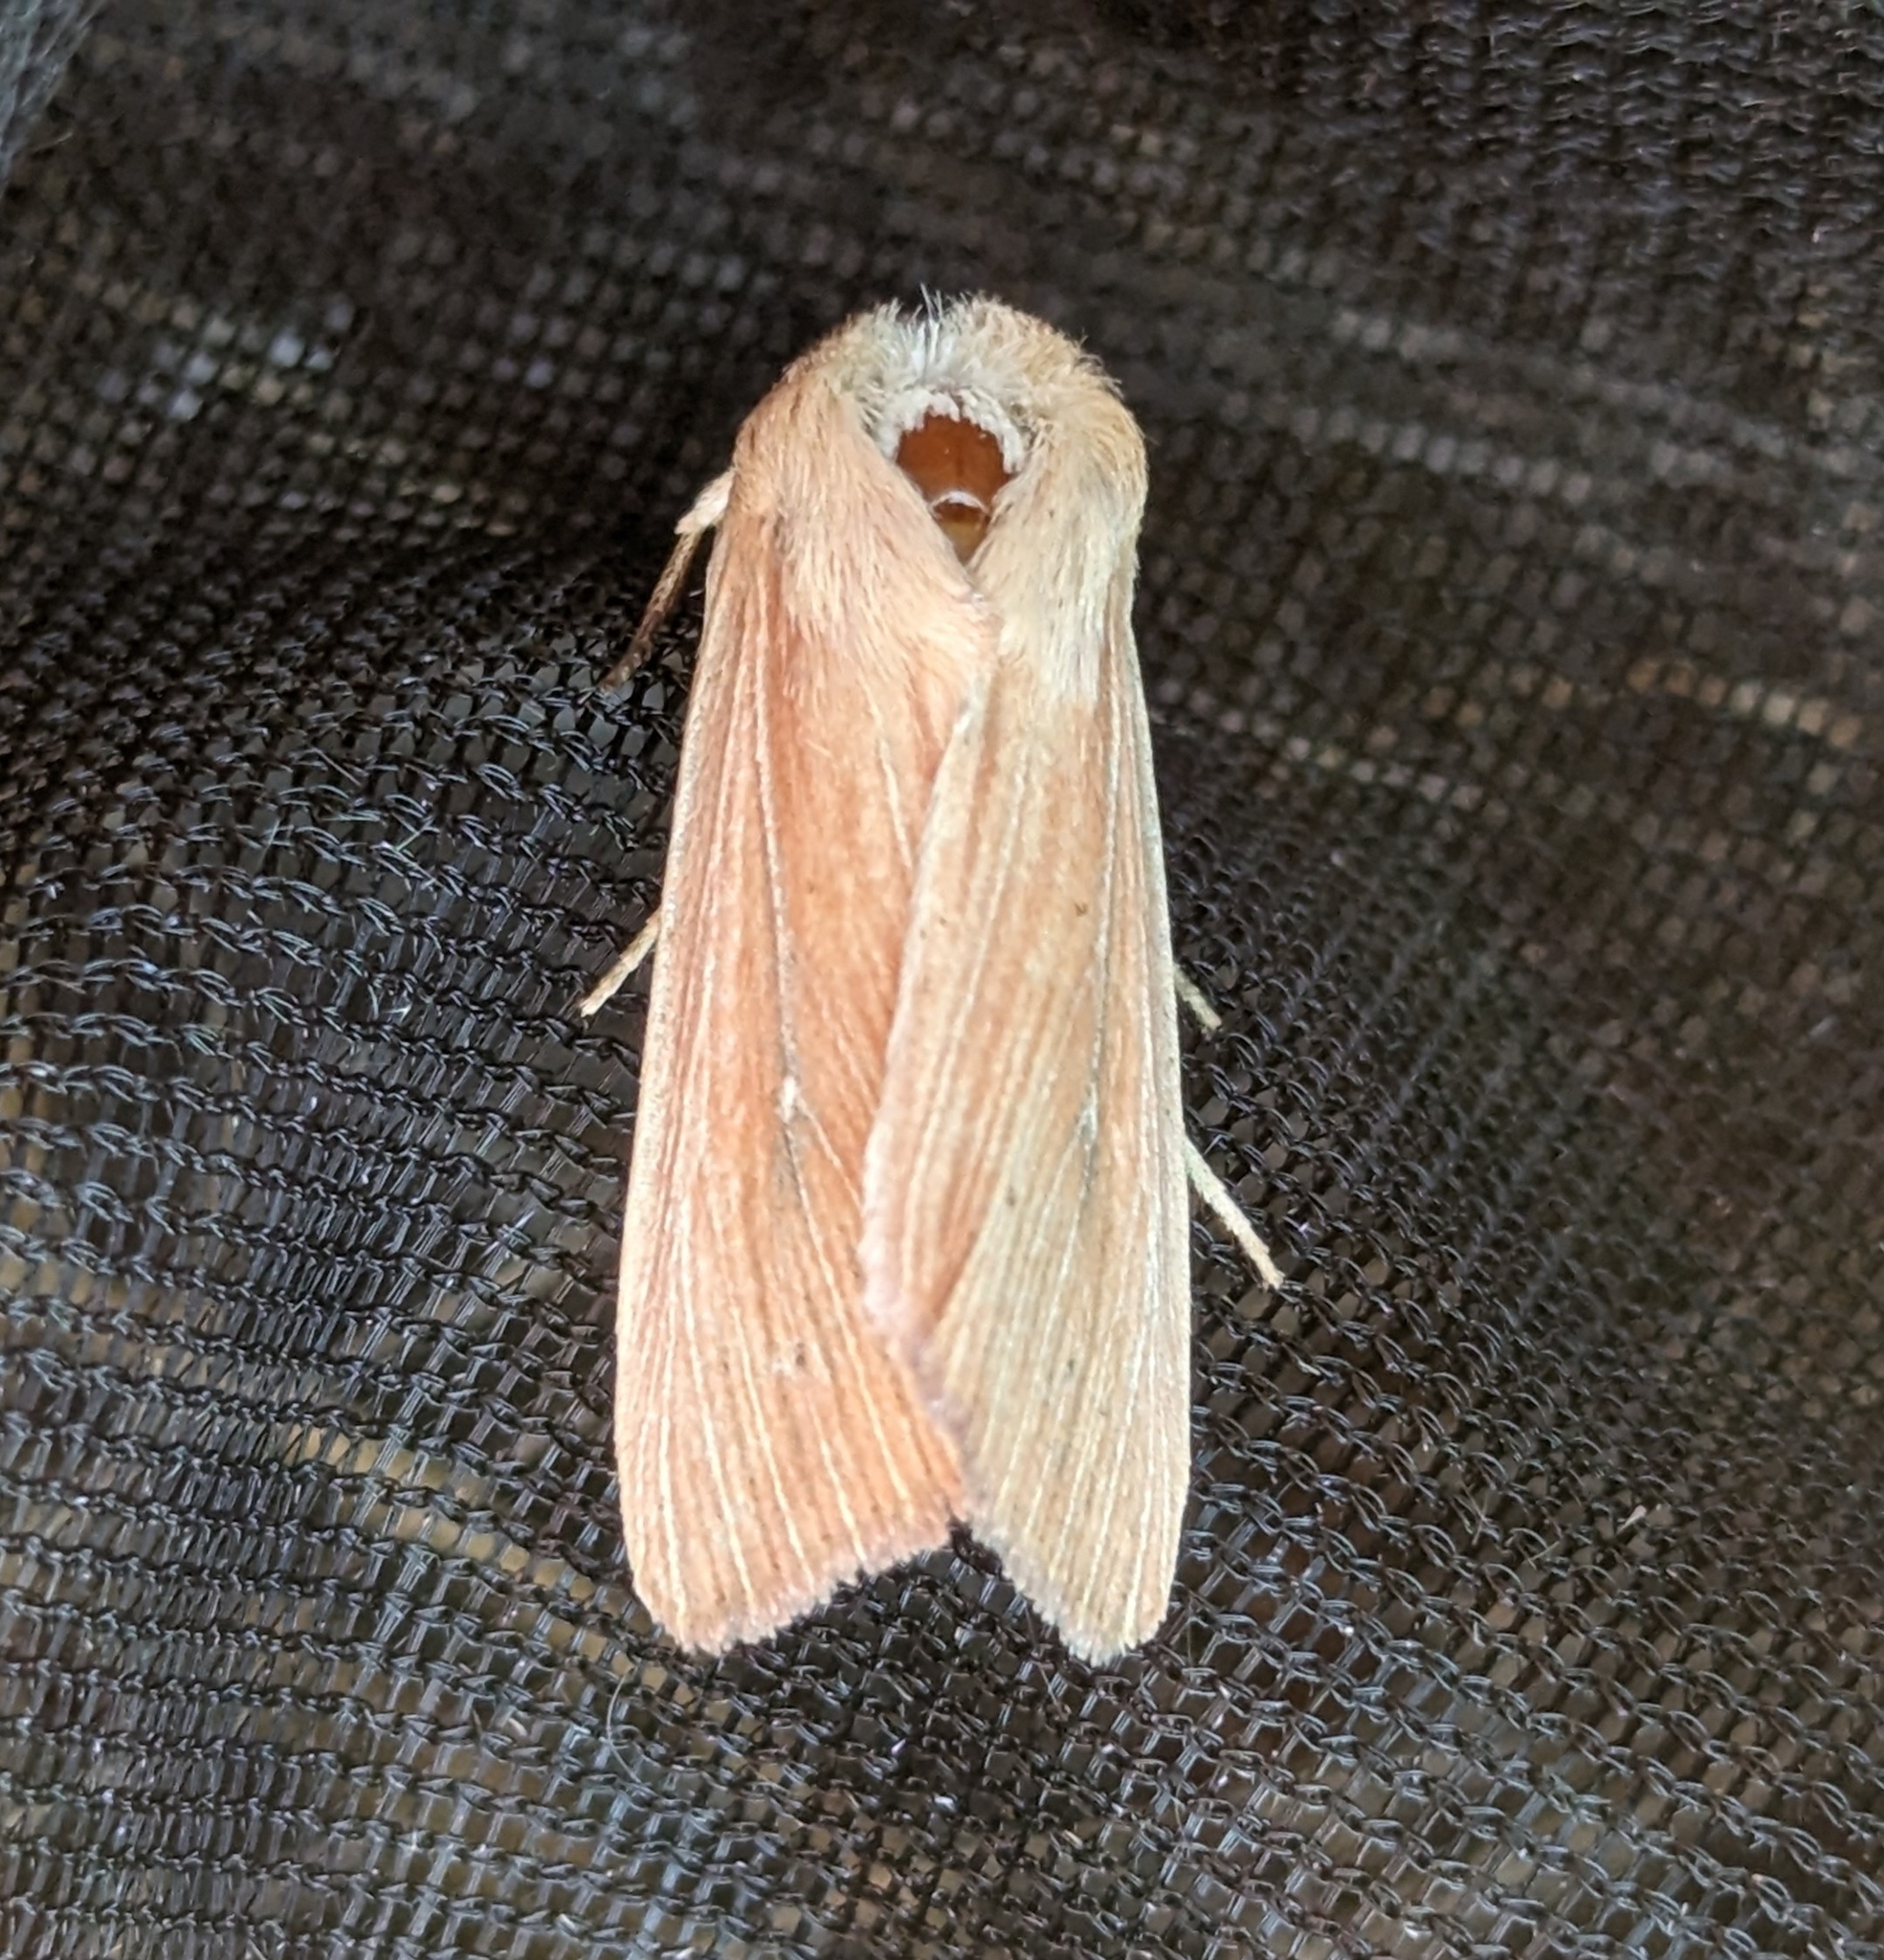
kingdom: Animalia
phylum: Arthropoda
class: Insecta
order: Lepidoptera
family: Noctuidae
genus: Leucania
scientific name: Leucania farcta
